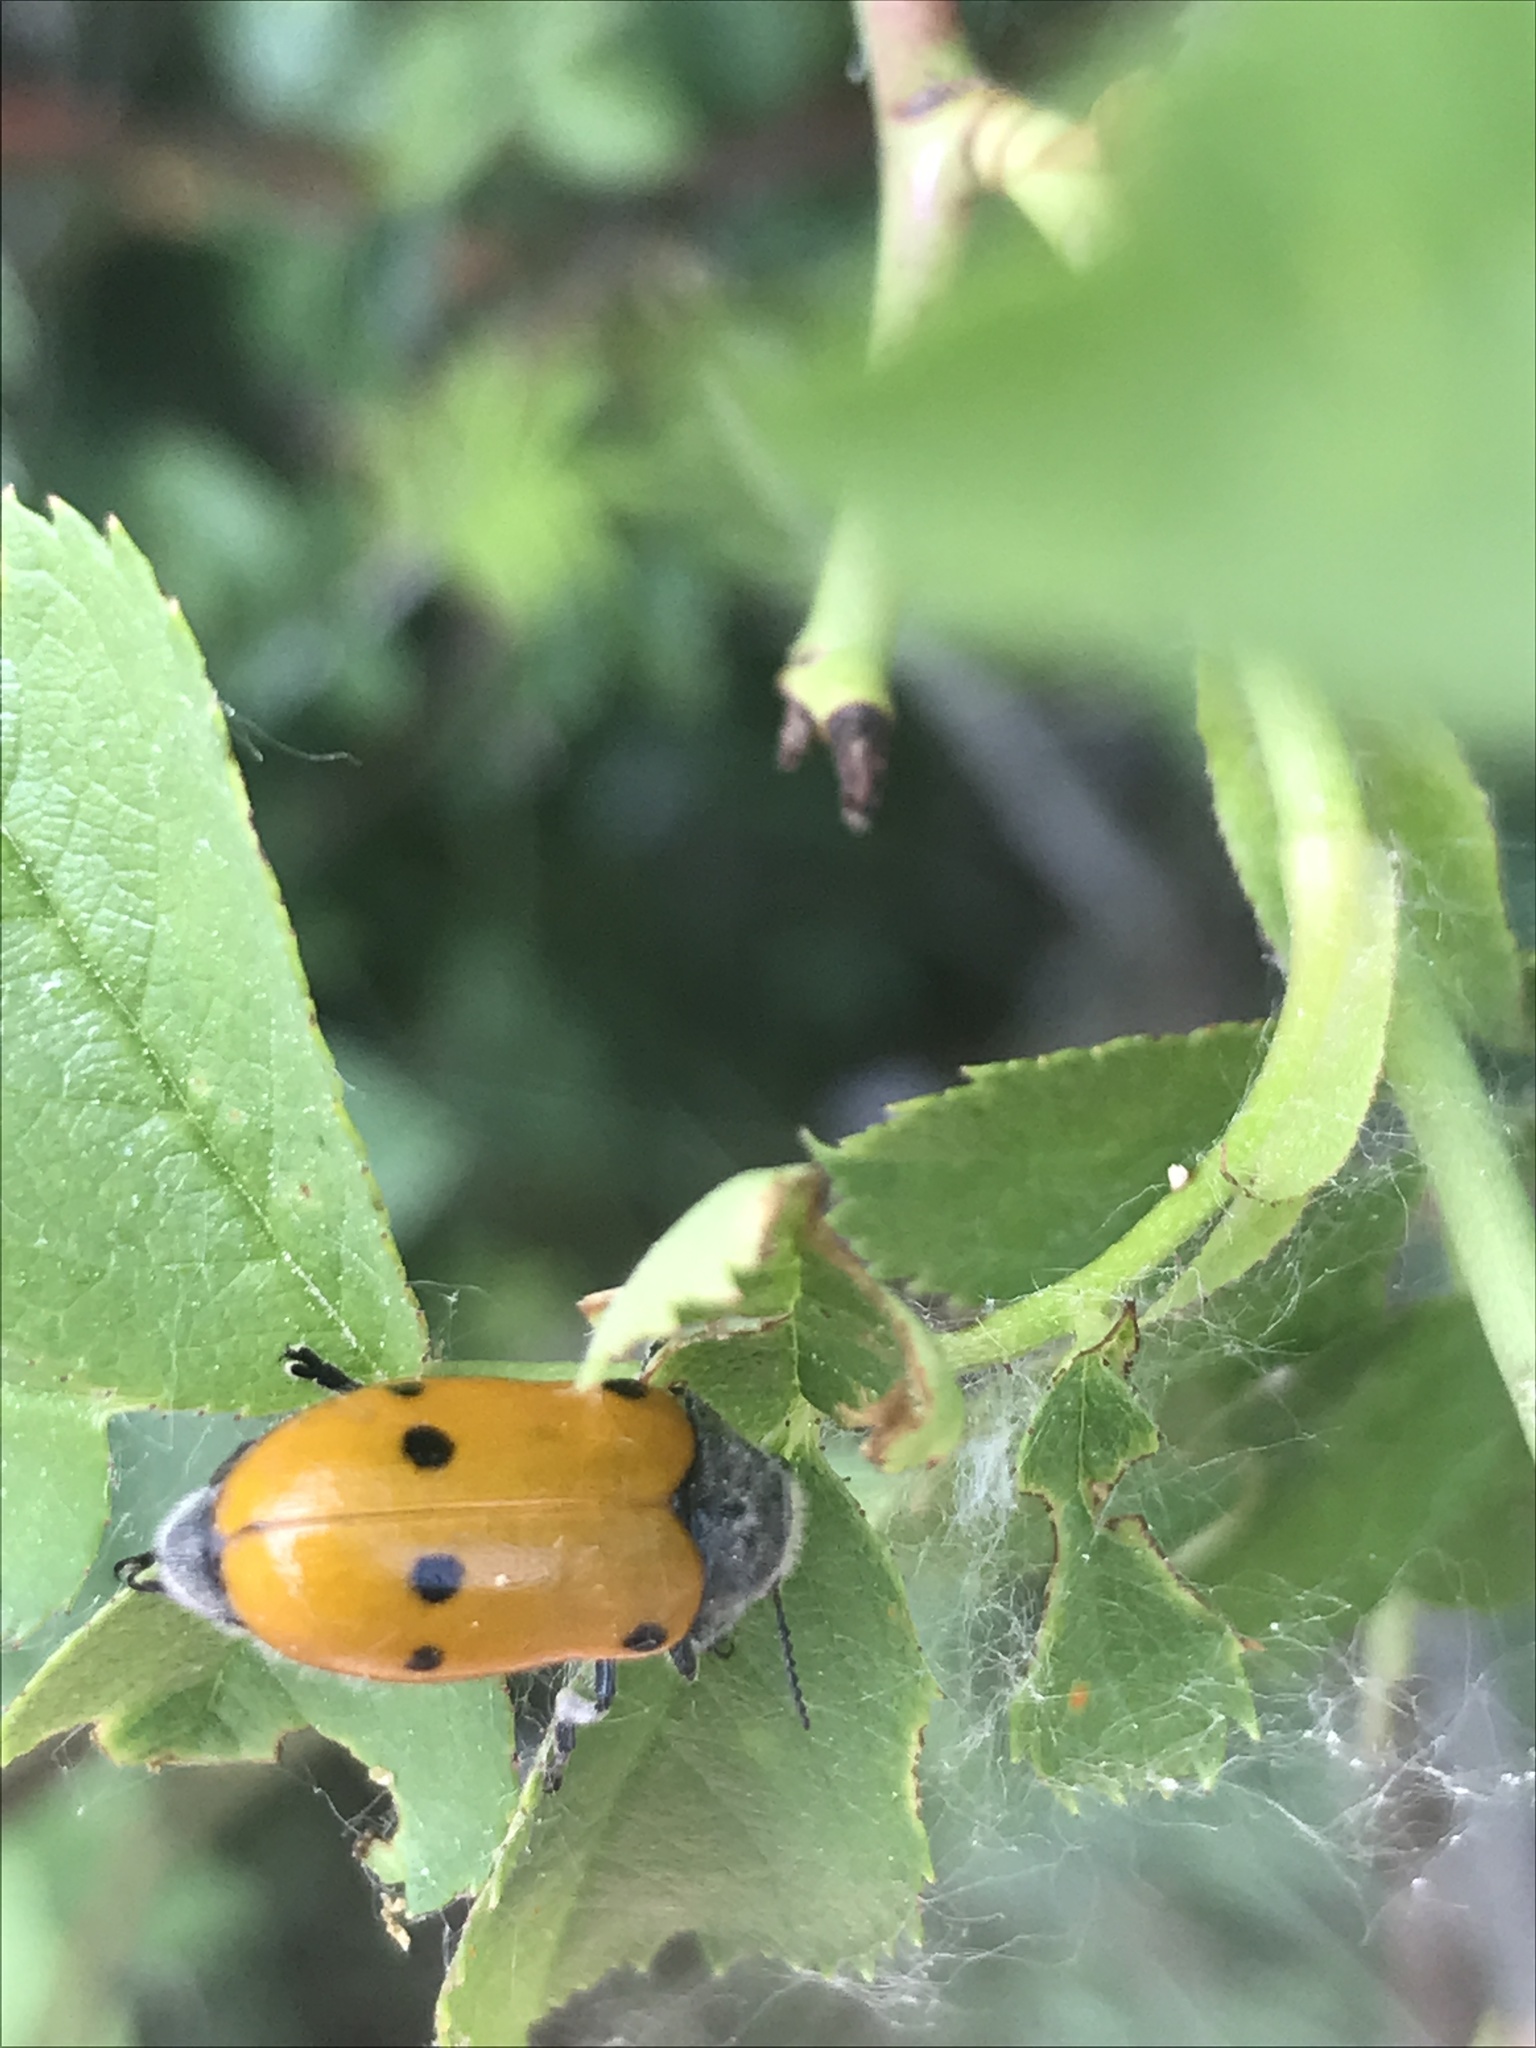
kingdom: Animalia
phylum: Arthropoda
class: Insecta
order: Coleoptera
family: Chrysomelidae
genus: Lachnaia
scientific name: Lachnaia sexpunctata
